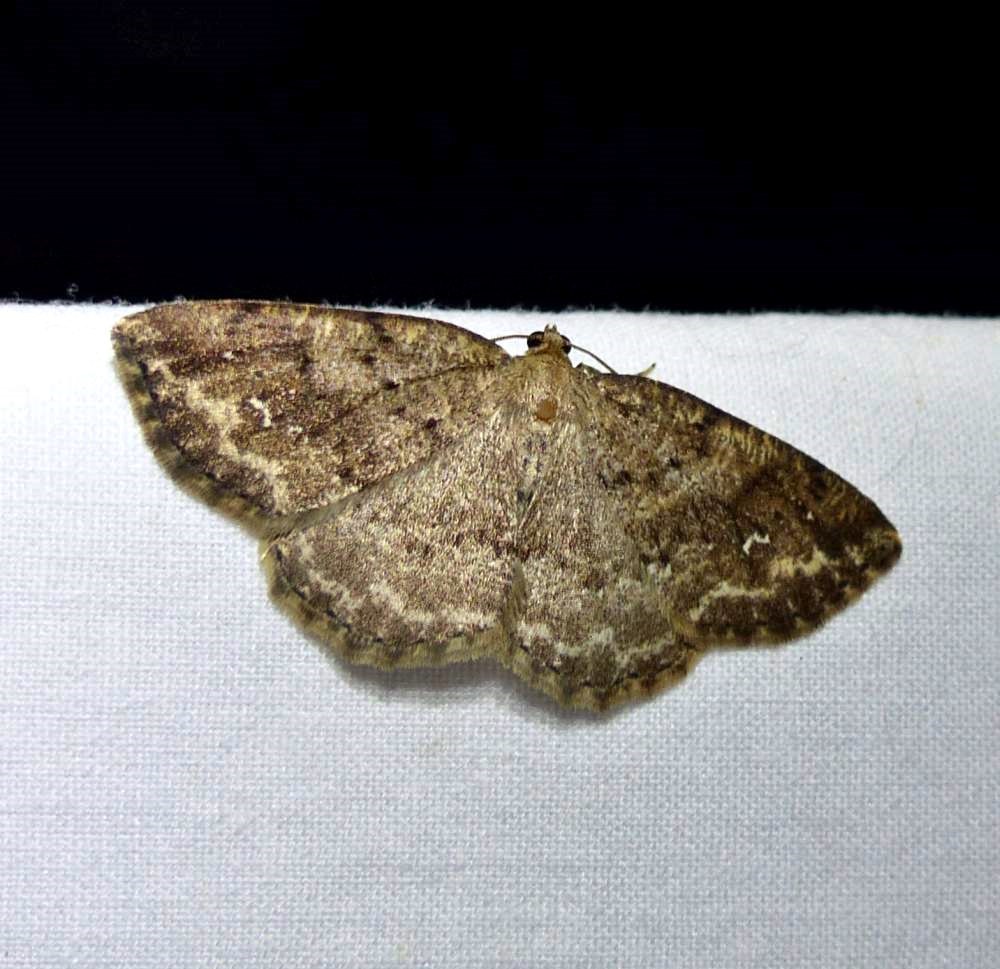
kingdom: Animalia
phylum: Arthropoda
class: Insecta
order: Lepidoptera
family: Geometridae
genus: Homochlodes
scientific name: Homochlodes fritillaria
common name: Pale homochlodes
